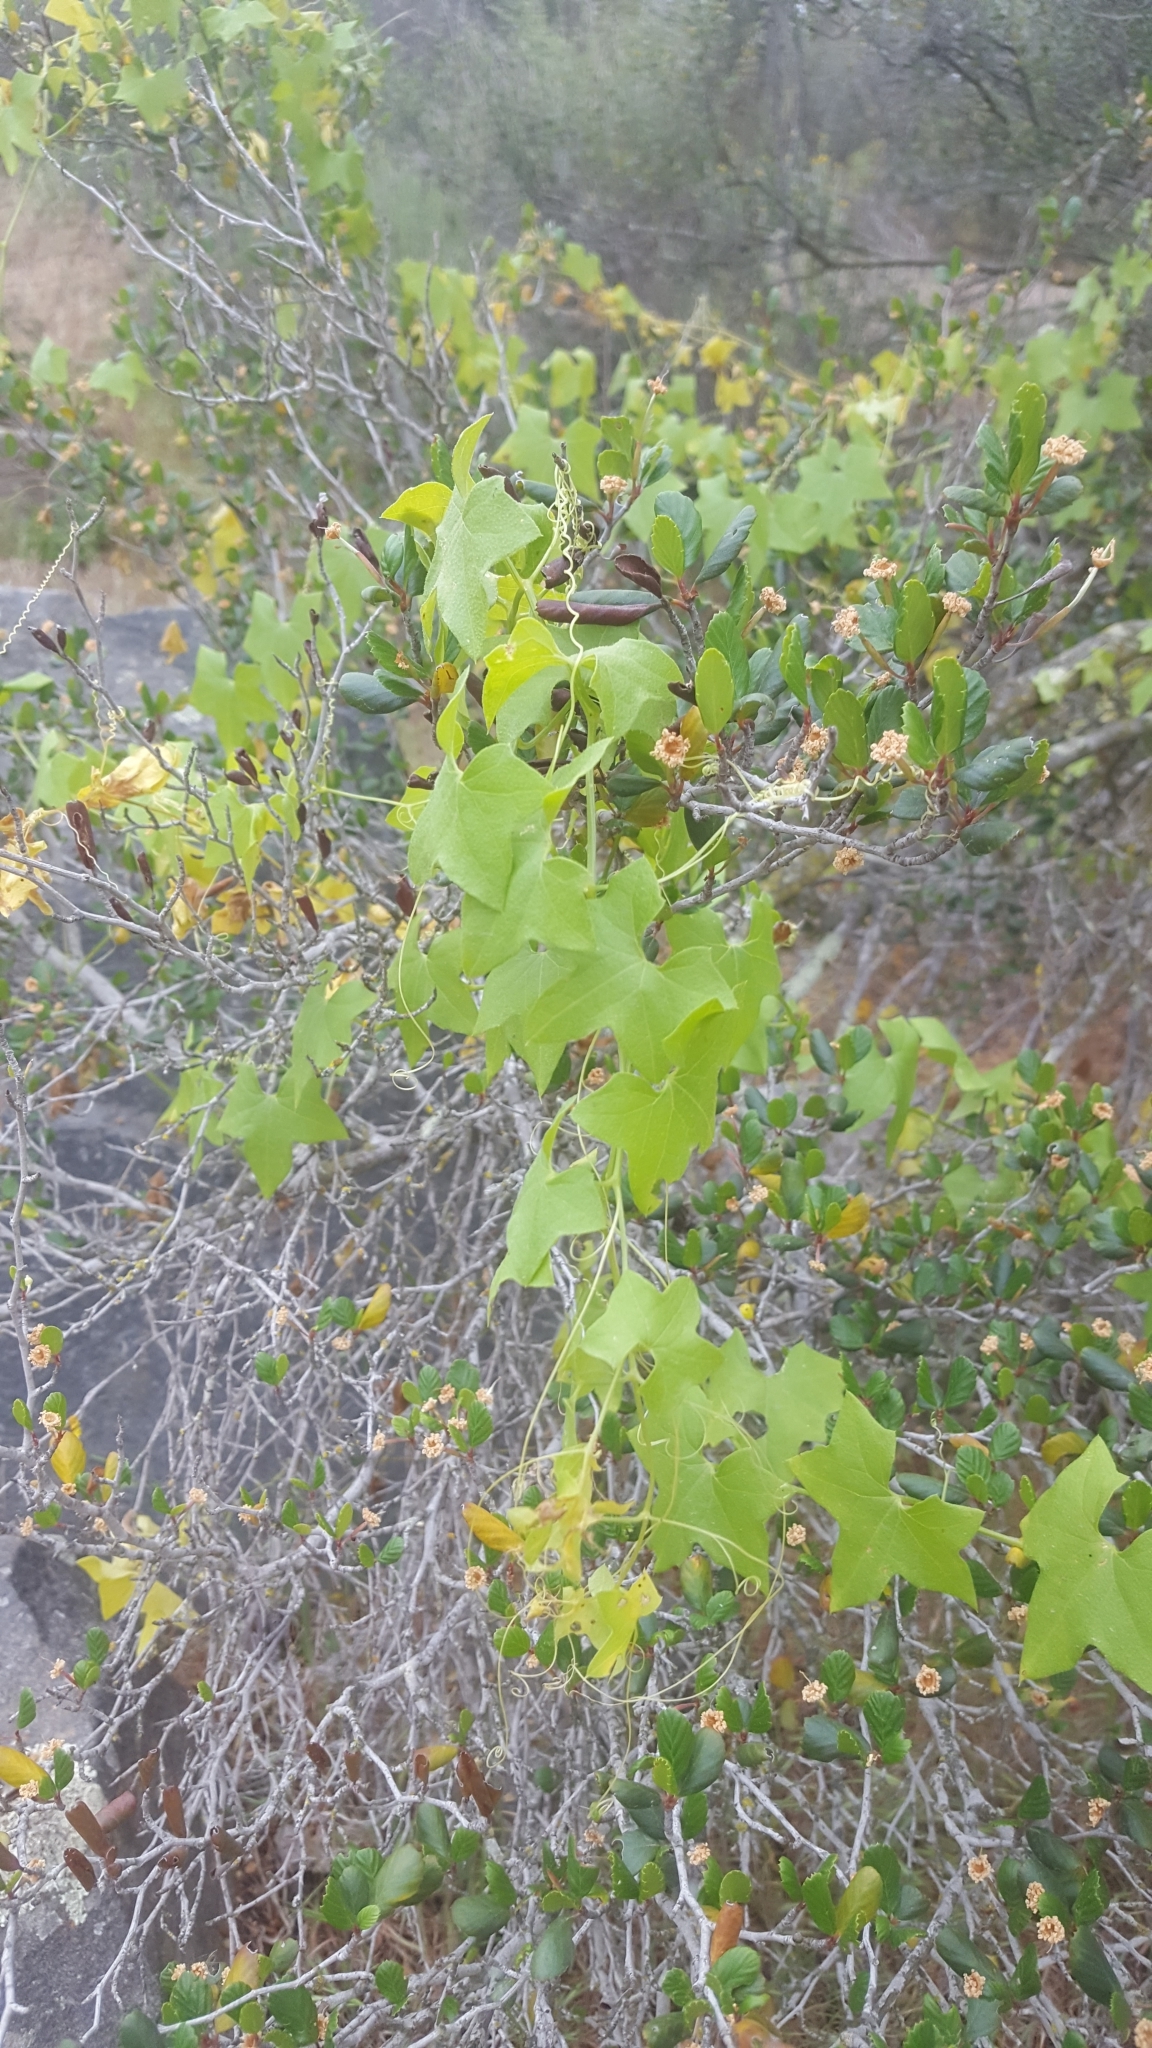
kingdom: Plantae
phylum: Tracheophyta
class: Magnoliopsida
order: Cucurbitales
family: Cucurbitaceae
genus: Marah
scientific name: Marah macrocarpa
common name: Cucamonga manroot
